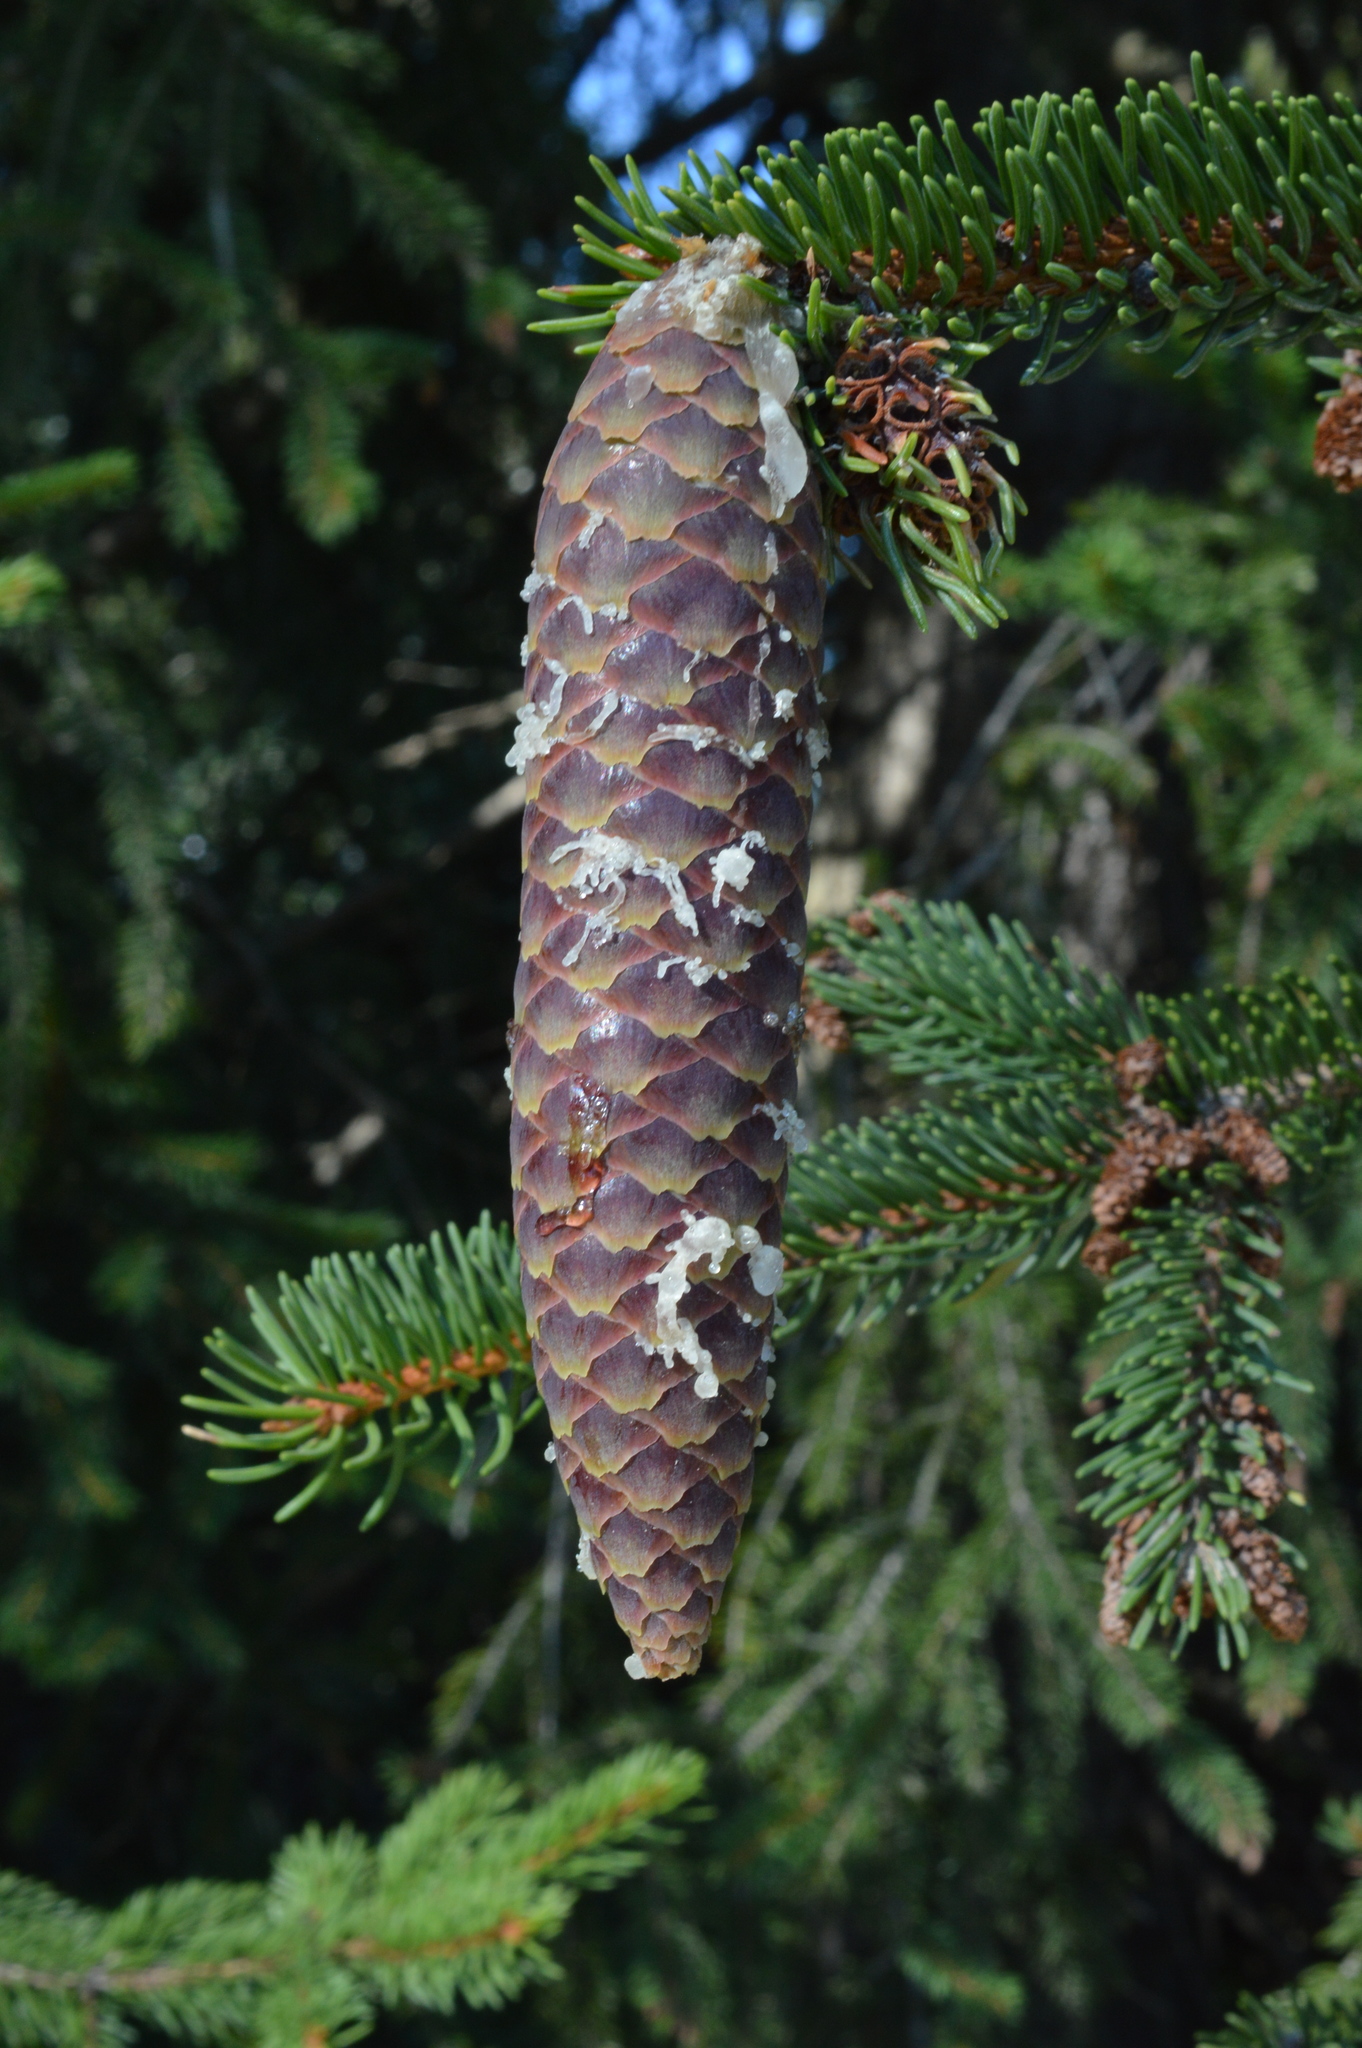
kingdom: Plantae
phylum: Tracheophyta
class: Pinopsida
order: Pinales
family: Pinaceae
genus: Picea
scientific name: Picea abies
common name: Norway spruce
